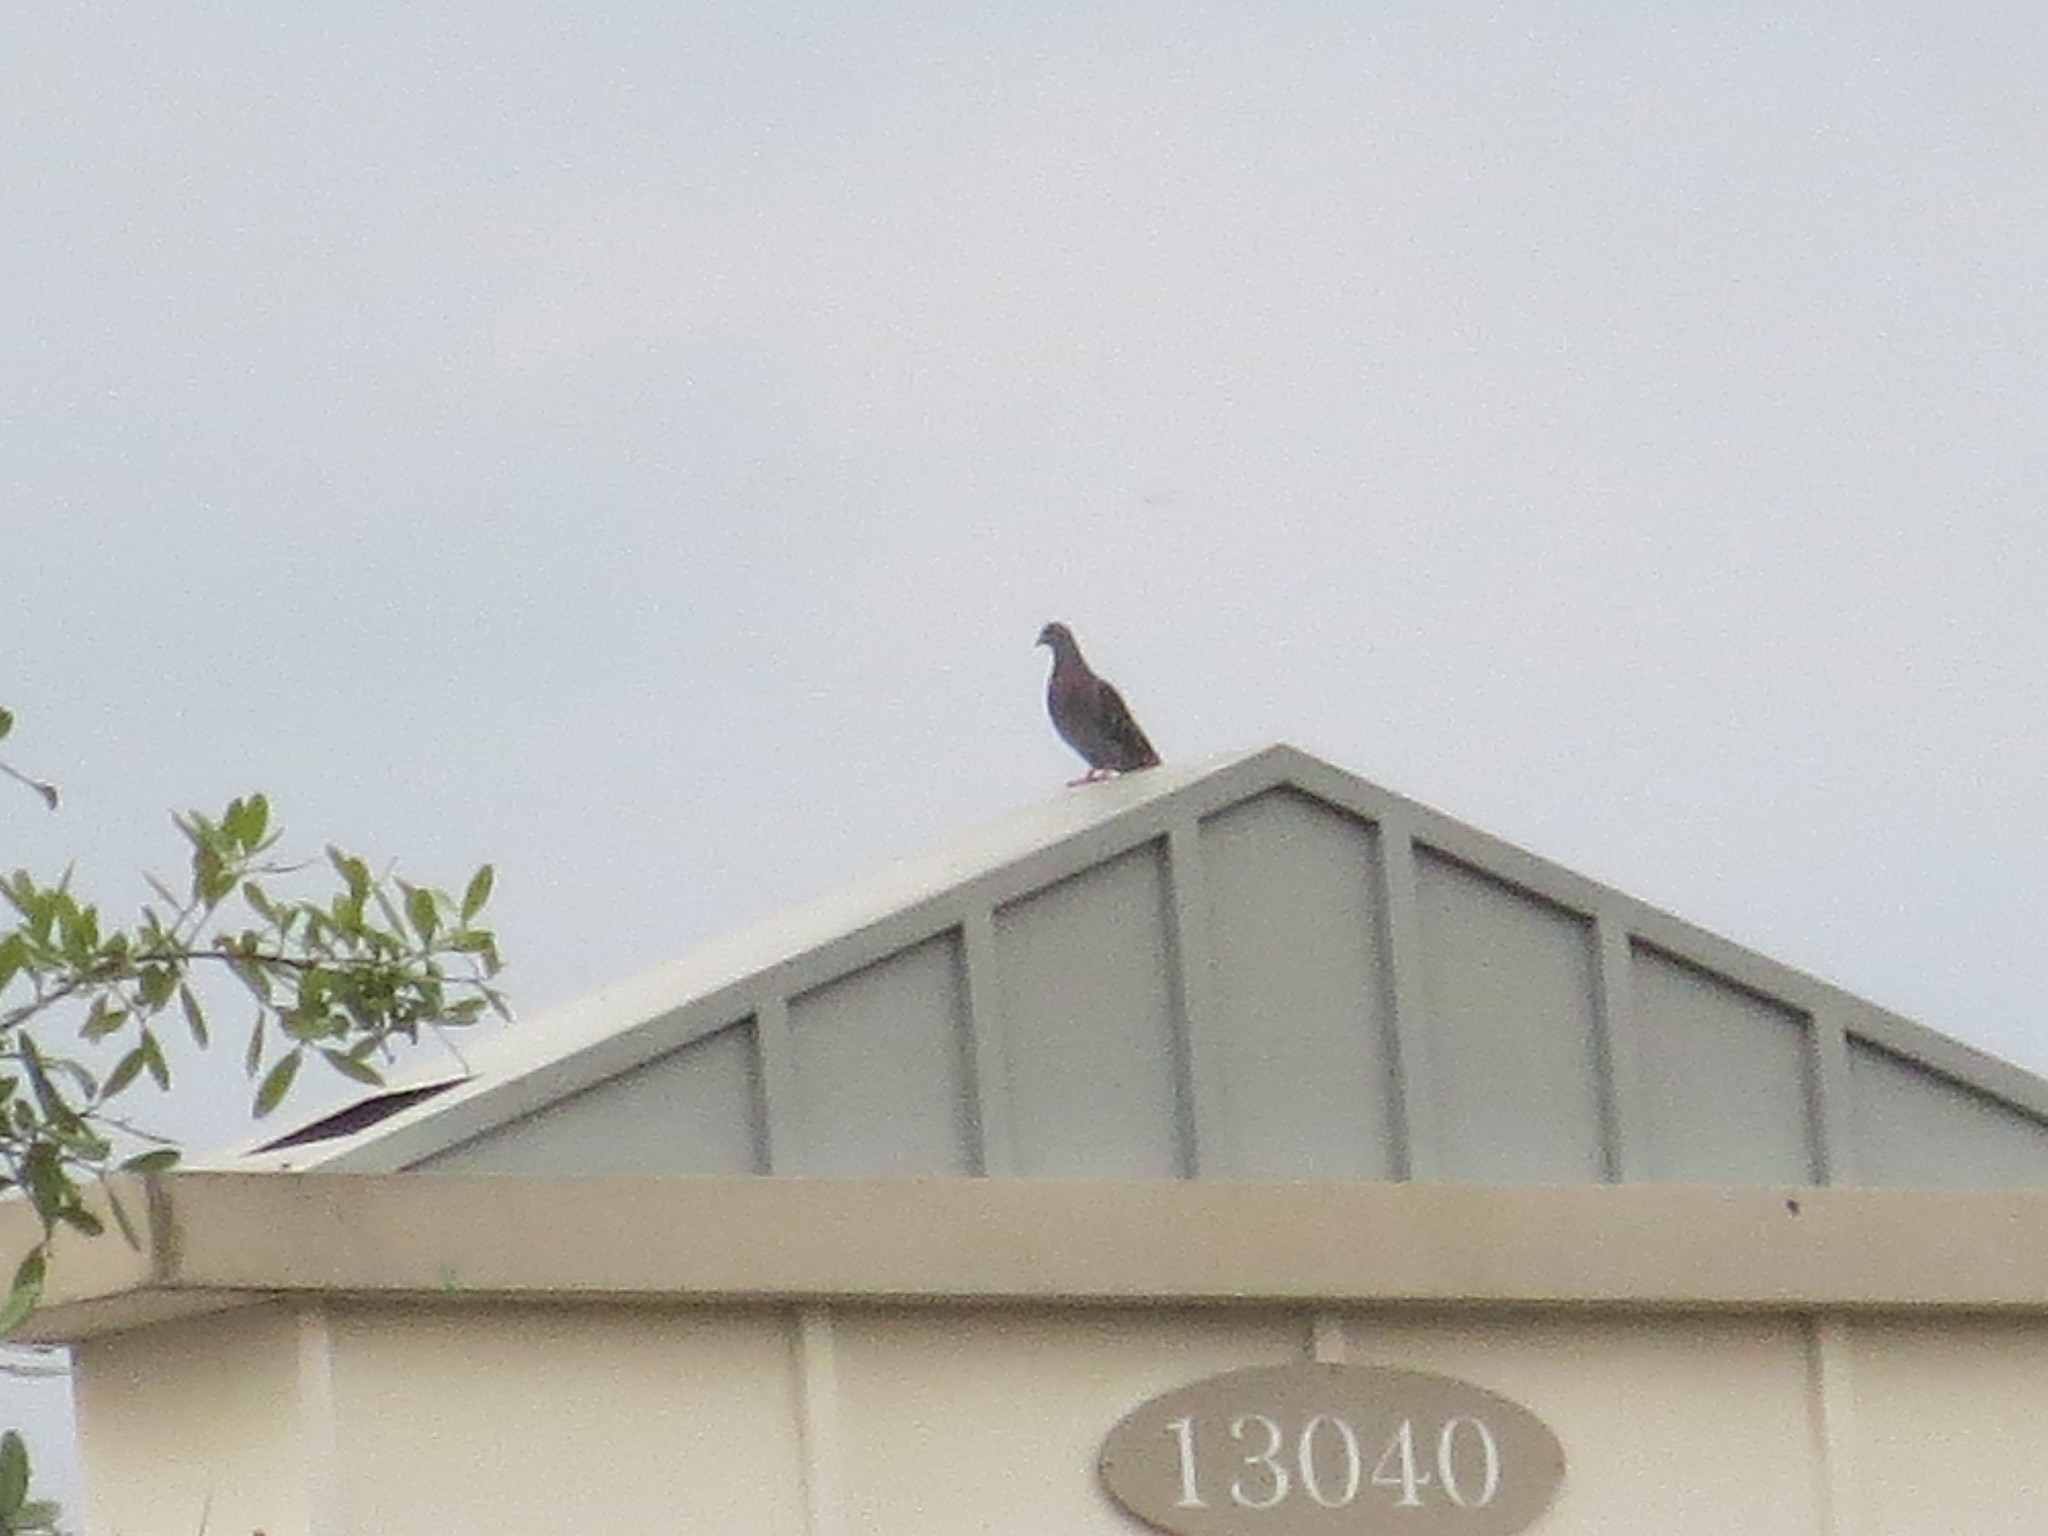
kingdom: Animalia
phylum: Chordata
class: Aves
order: Columbiformes
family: Columbidae
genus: Columba
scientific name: Columba livia
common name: Rock pigeon
